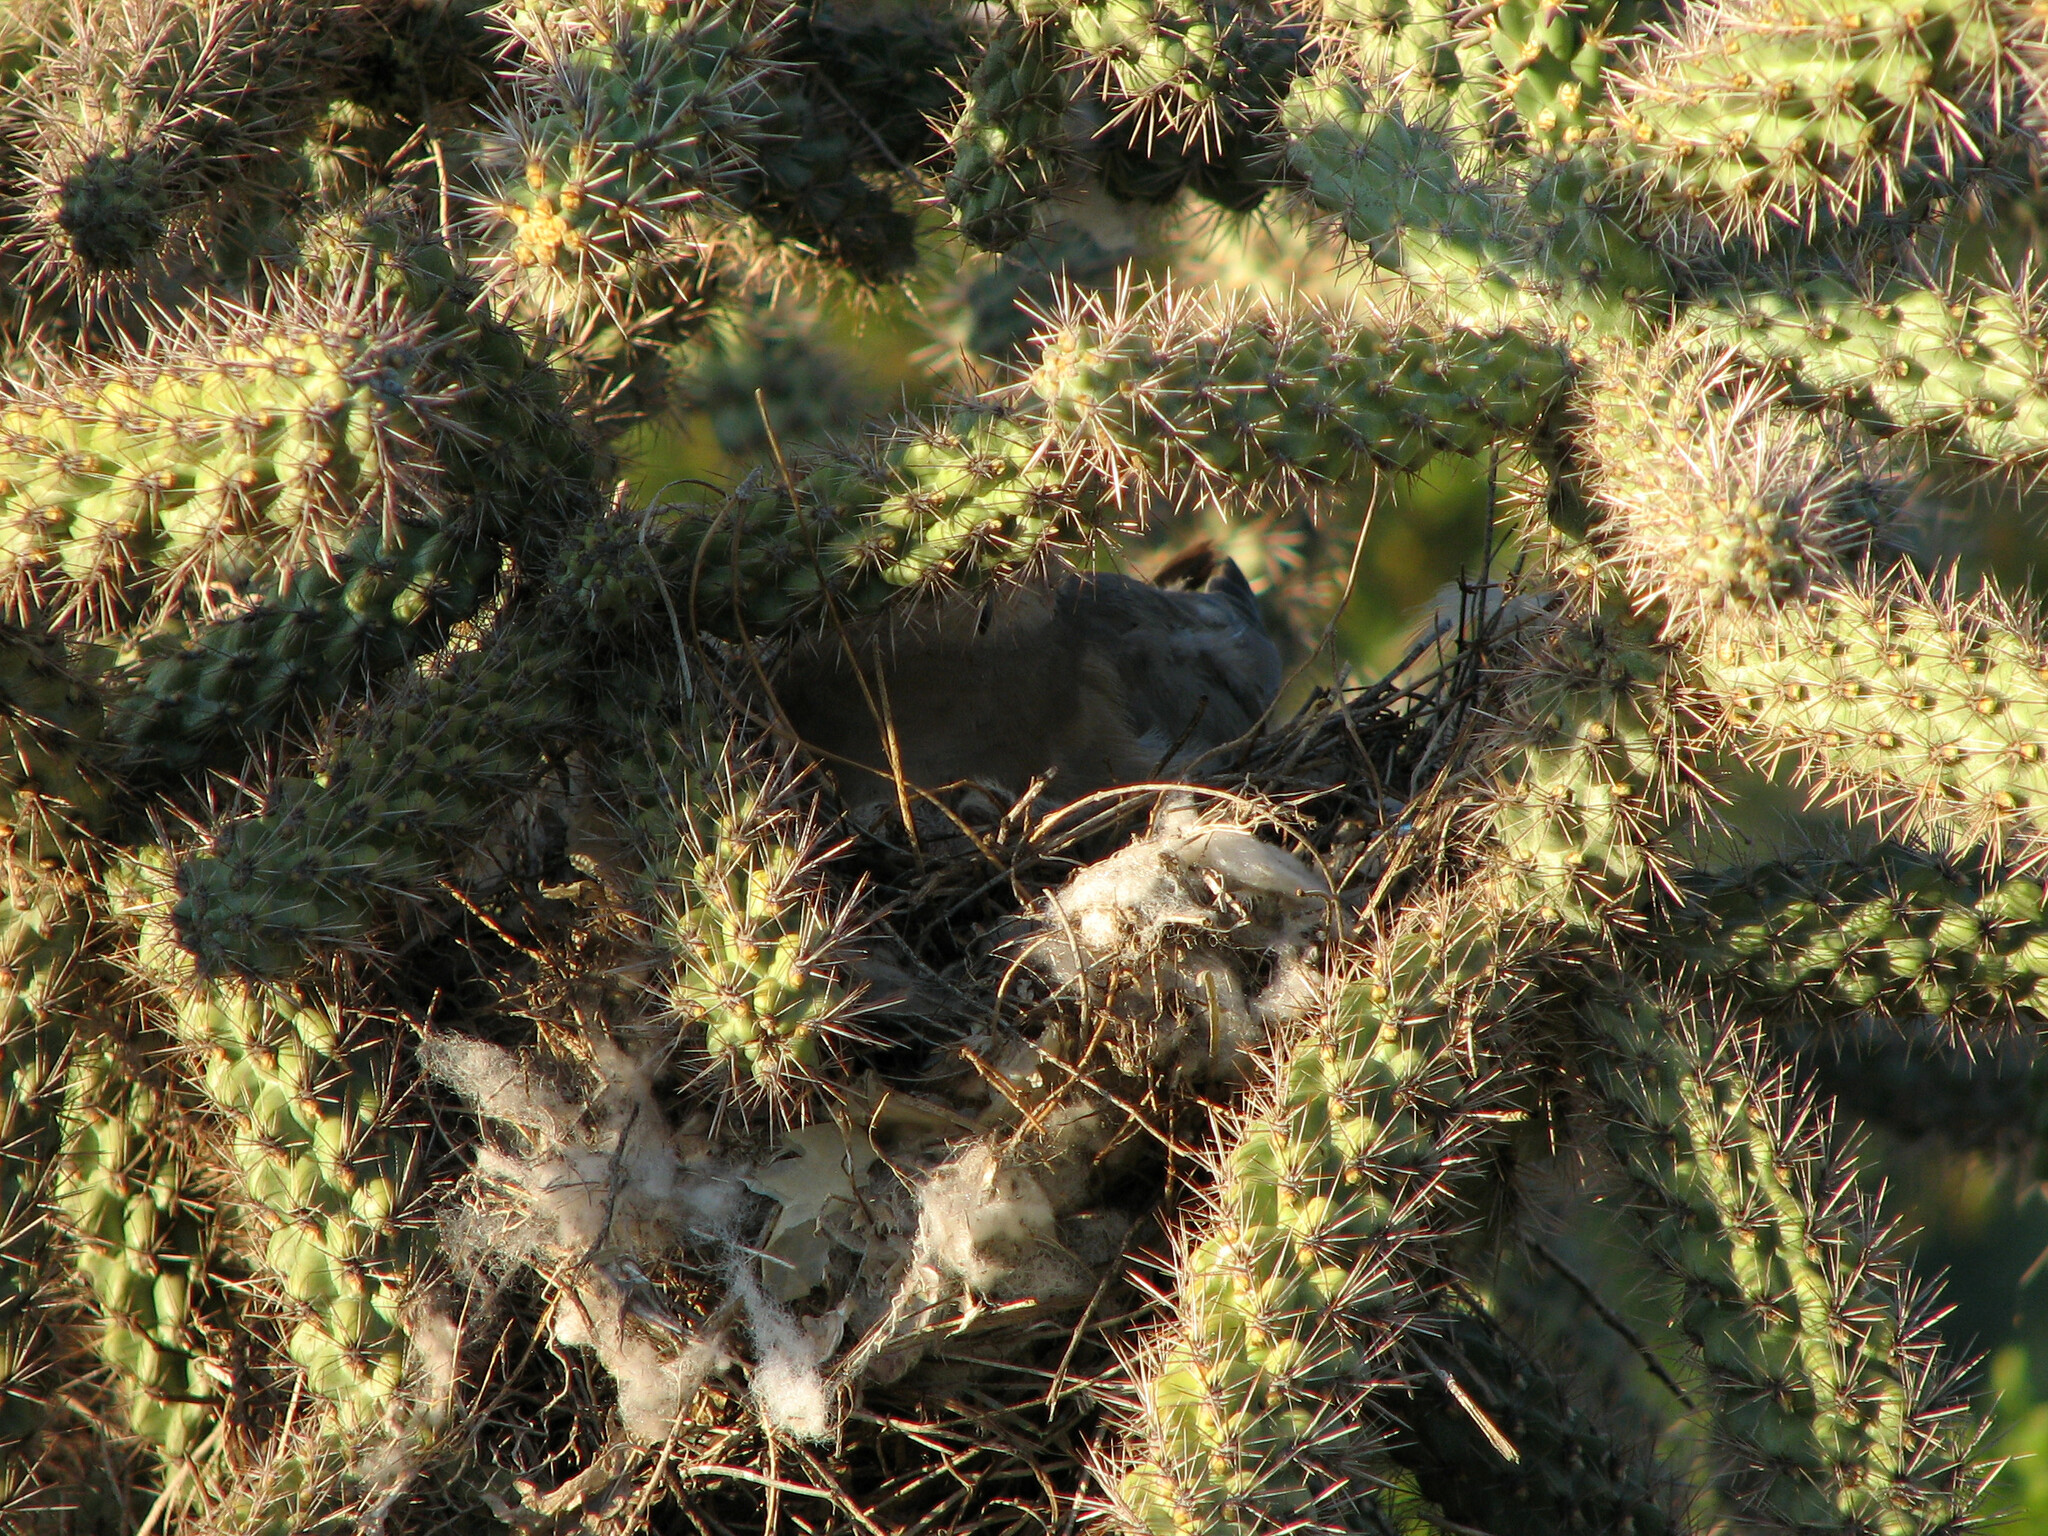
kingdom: Animalia
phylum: Chordata
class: Aves
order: Columbiformes
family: Columbidae
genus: Zenaida
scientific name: Zenaida macroura
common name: Mourning dove
